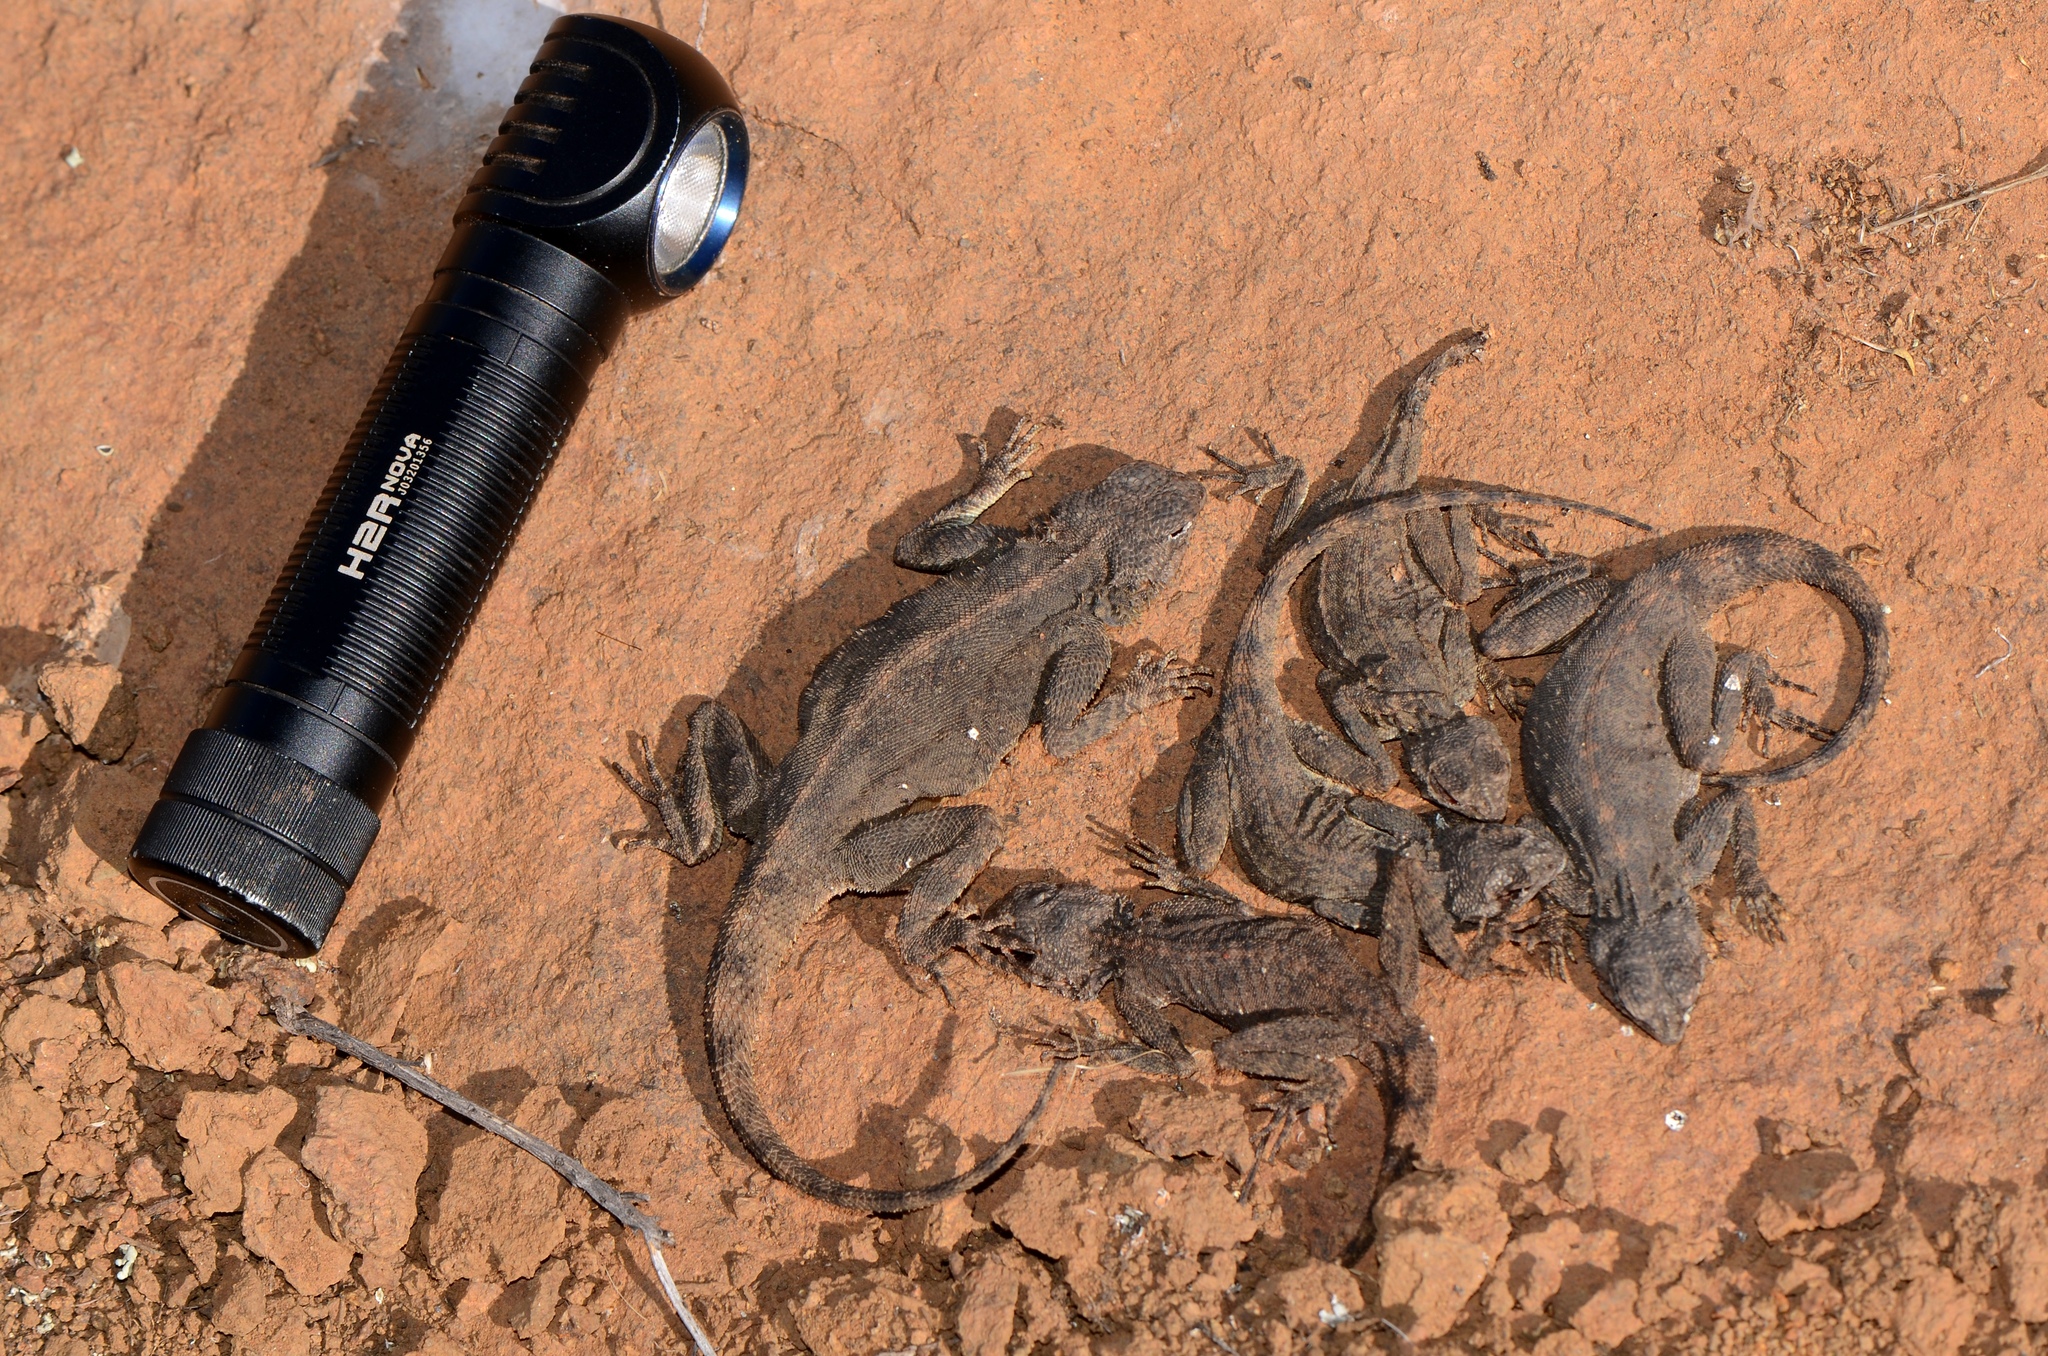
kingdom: Animalia
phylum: Chordata
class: Squamata
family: Agamidae
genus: Agama
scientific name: Agama atra
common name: Southern african rock agama
